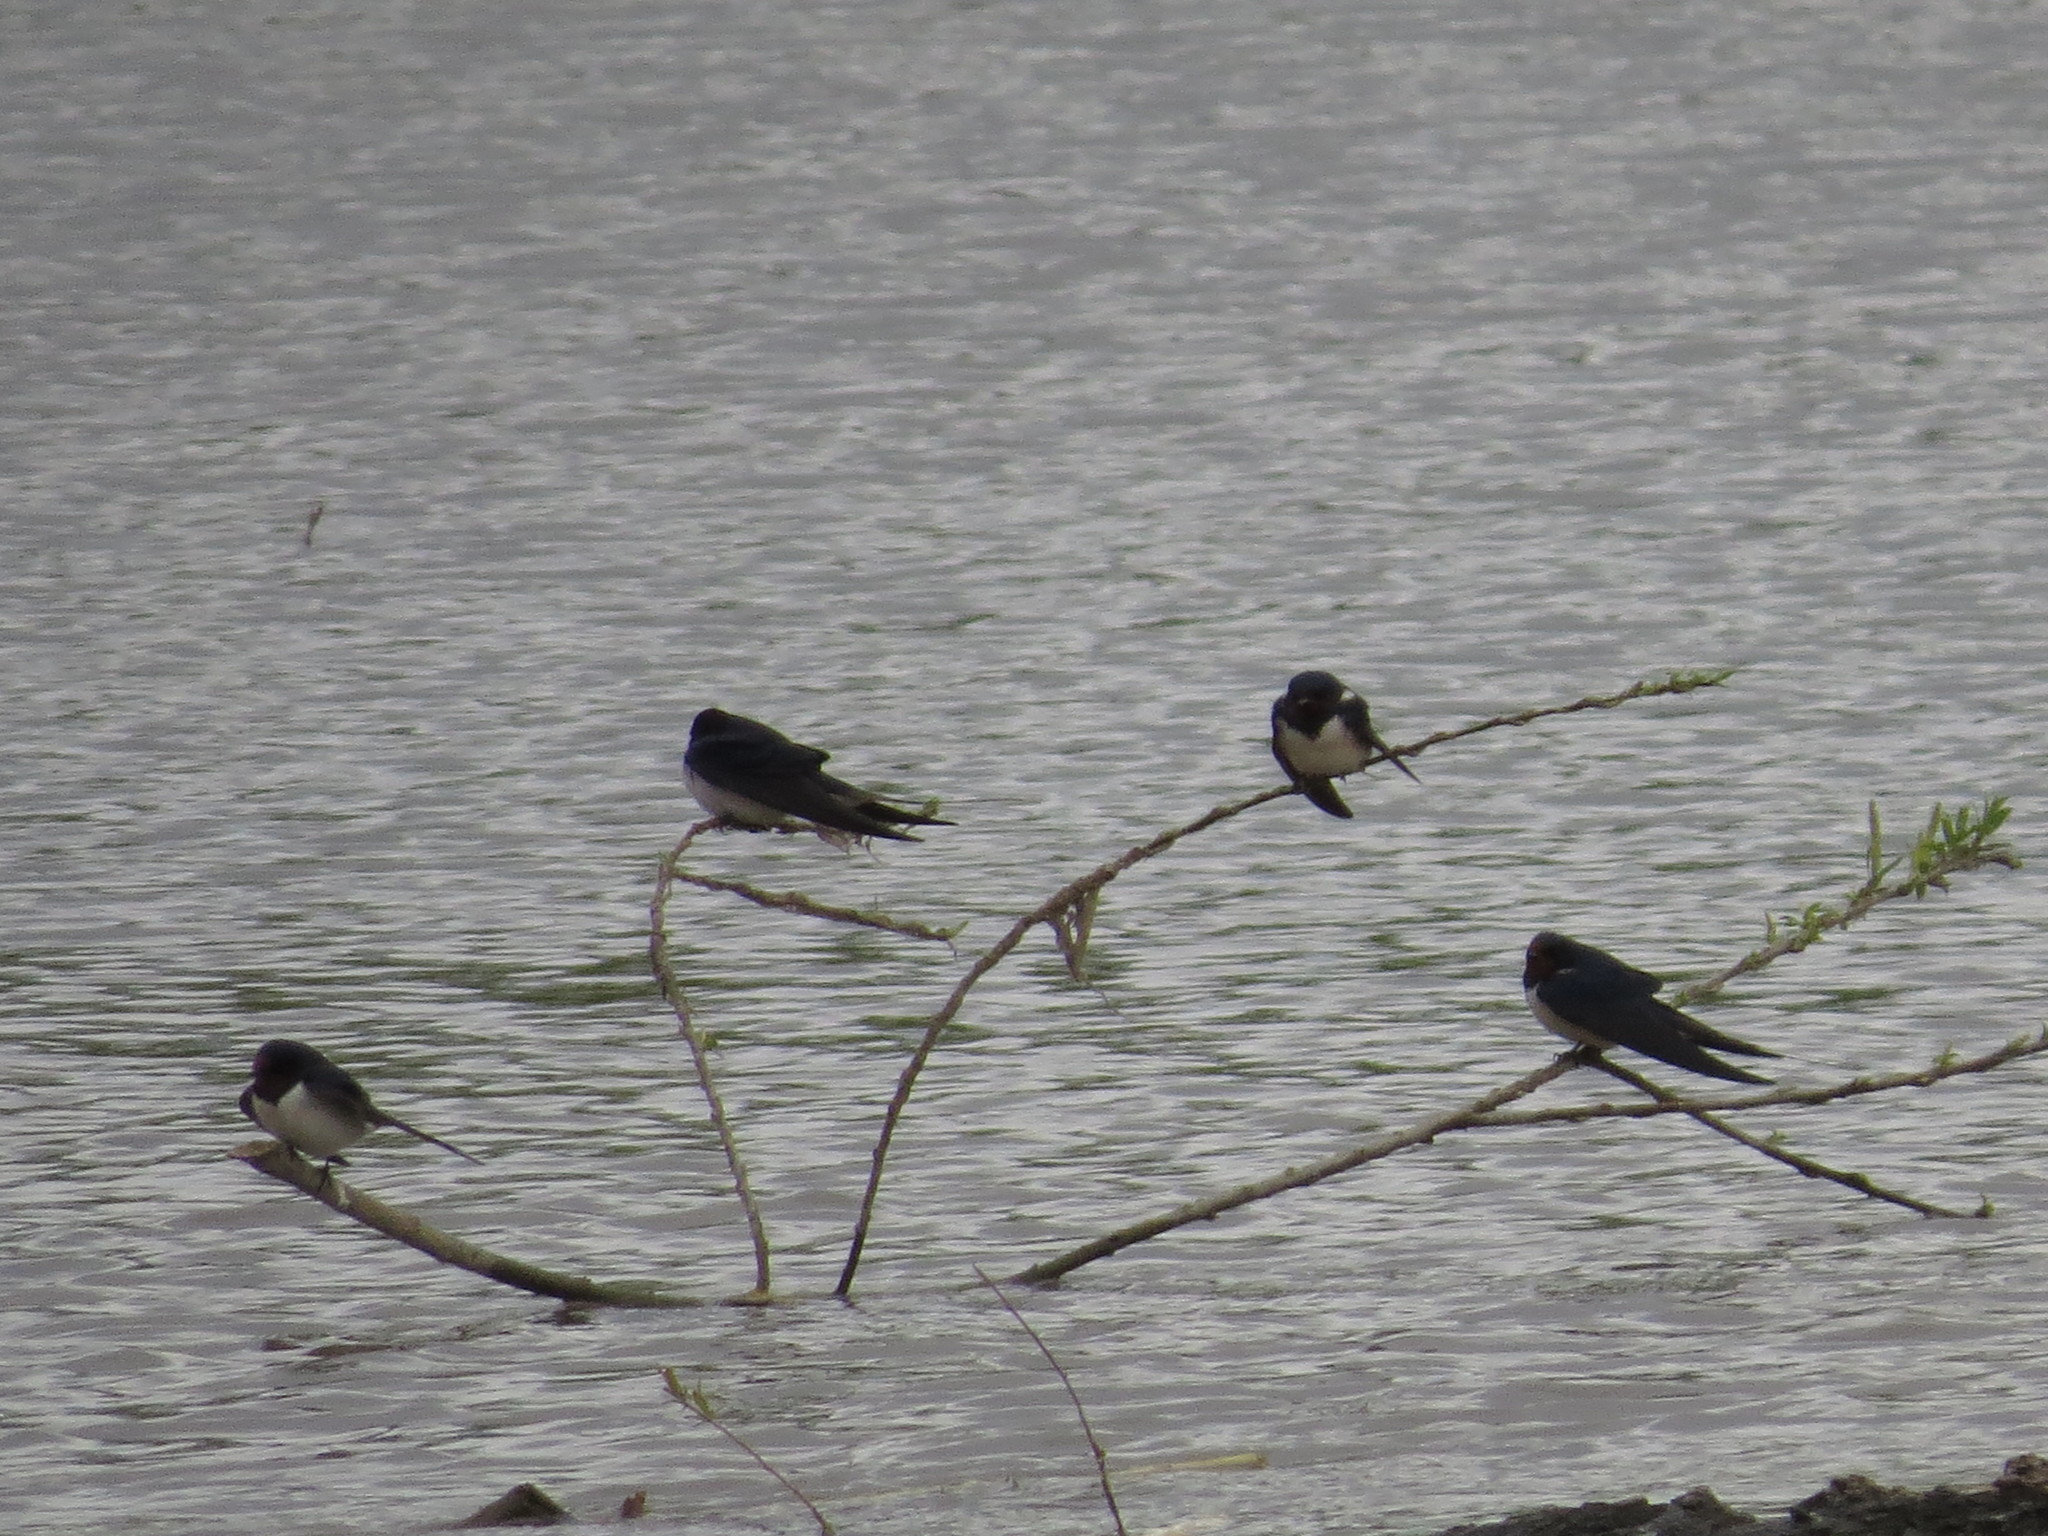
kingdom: Animalia
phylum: Chordata
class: Aves
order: Passeriformes
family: Hirundinidae
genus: Hirundo
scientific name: Hirundo rustica
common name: Barn swallow
